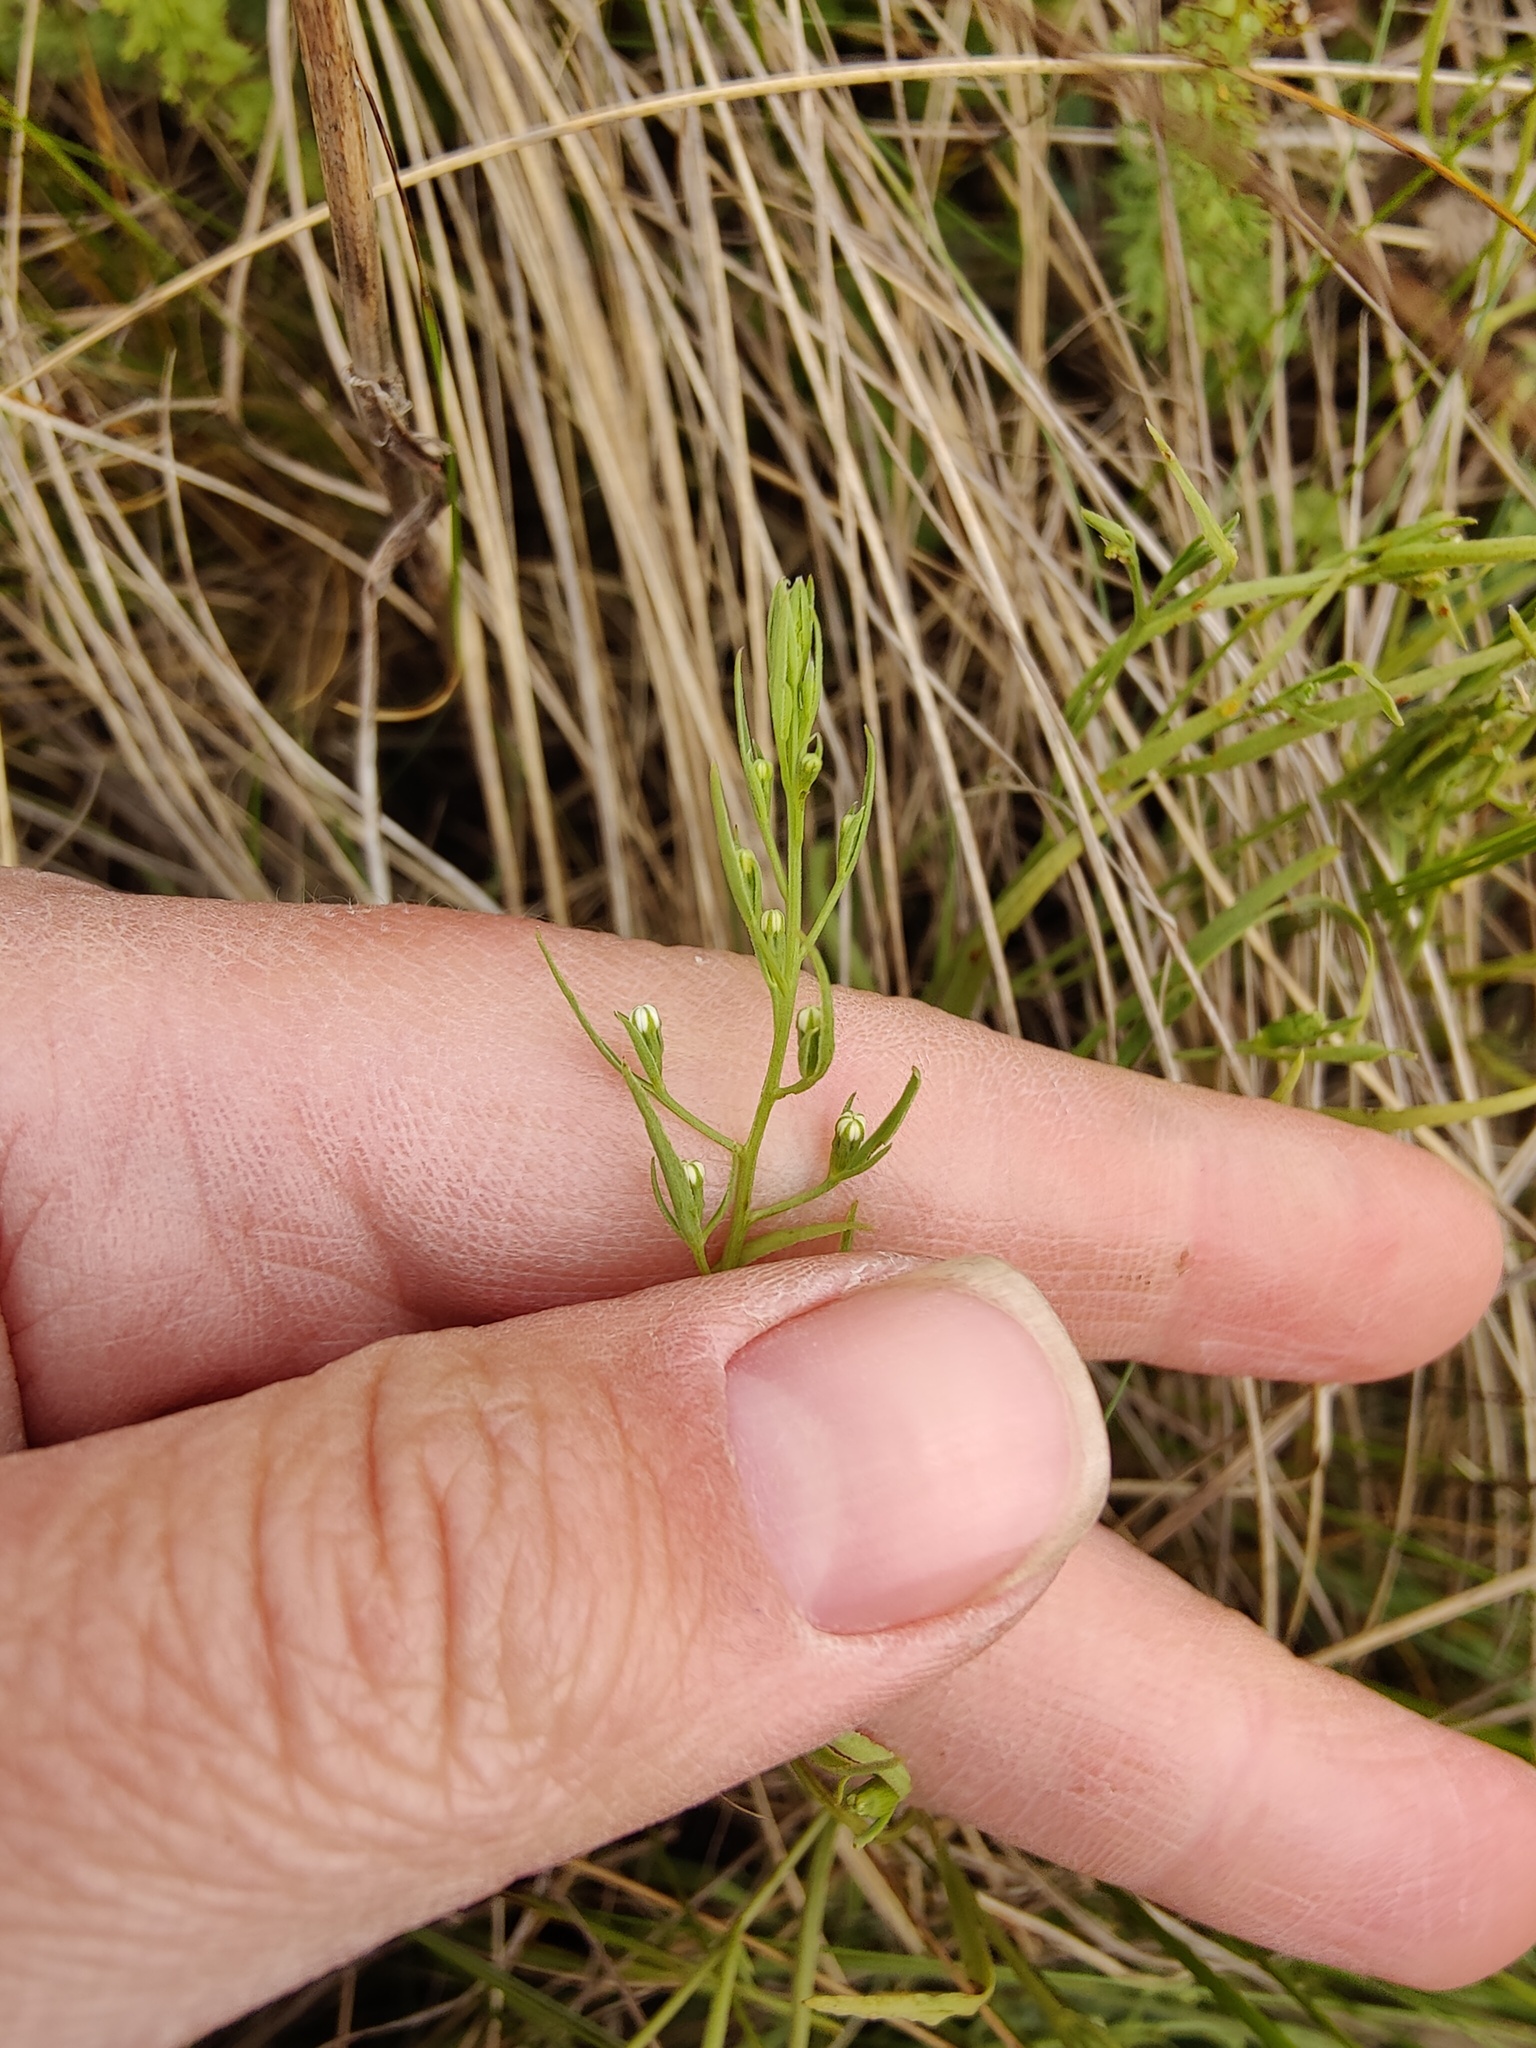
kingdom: Plantae
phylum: Tracheophyta
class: Magnoliopsida
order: Santalales
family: Thesiaceae
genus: Thesium
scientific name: Thesium ramosum
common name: Field thesium
